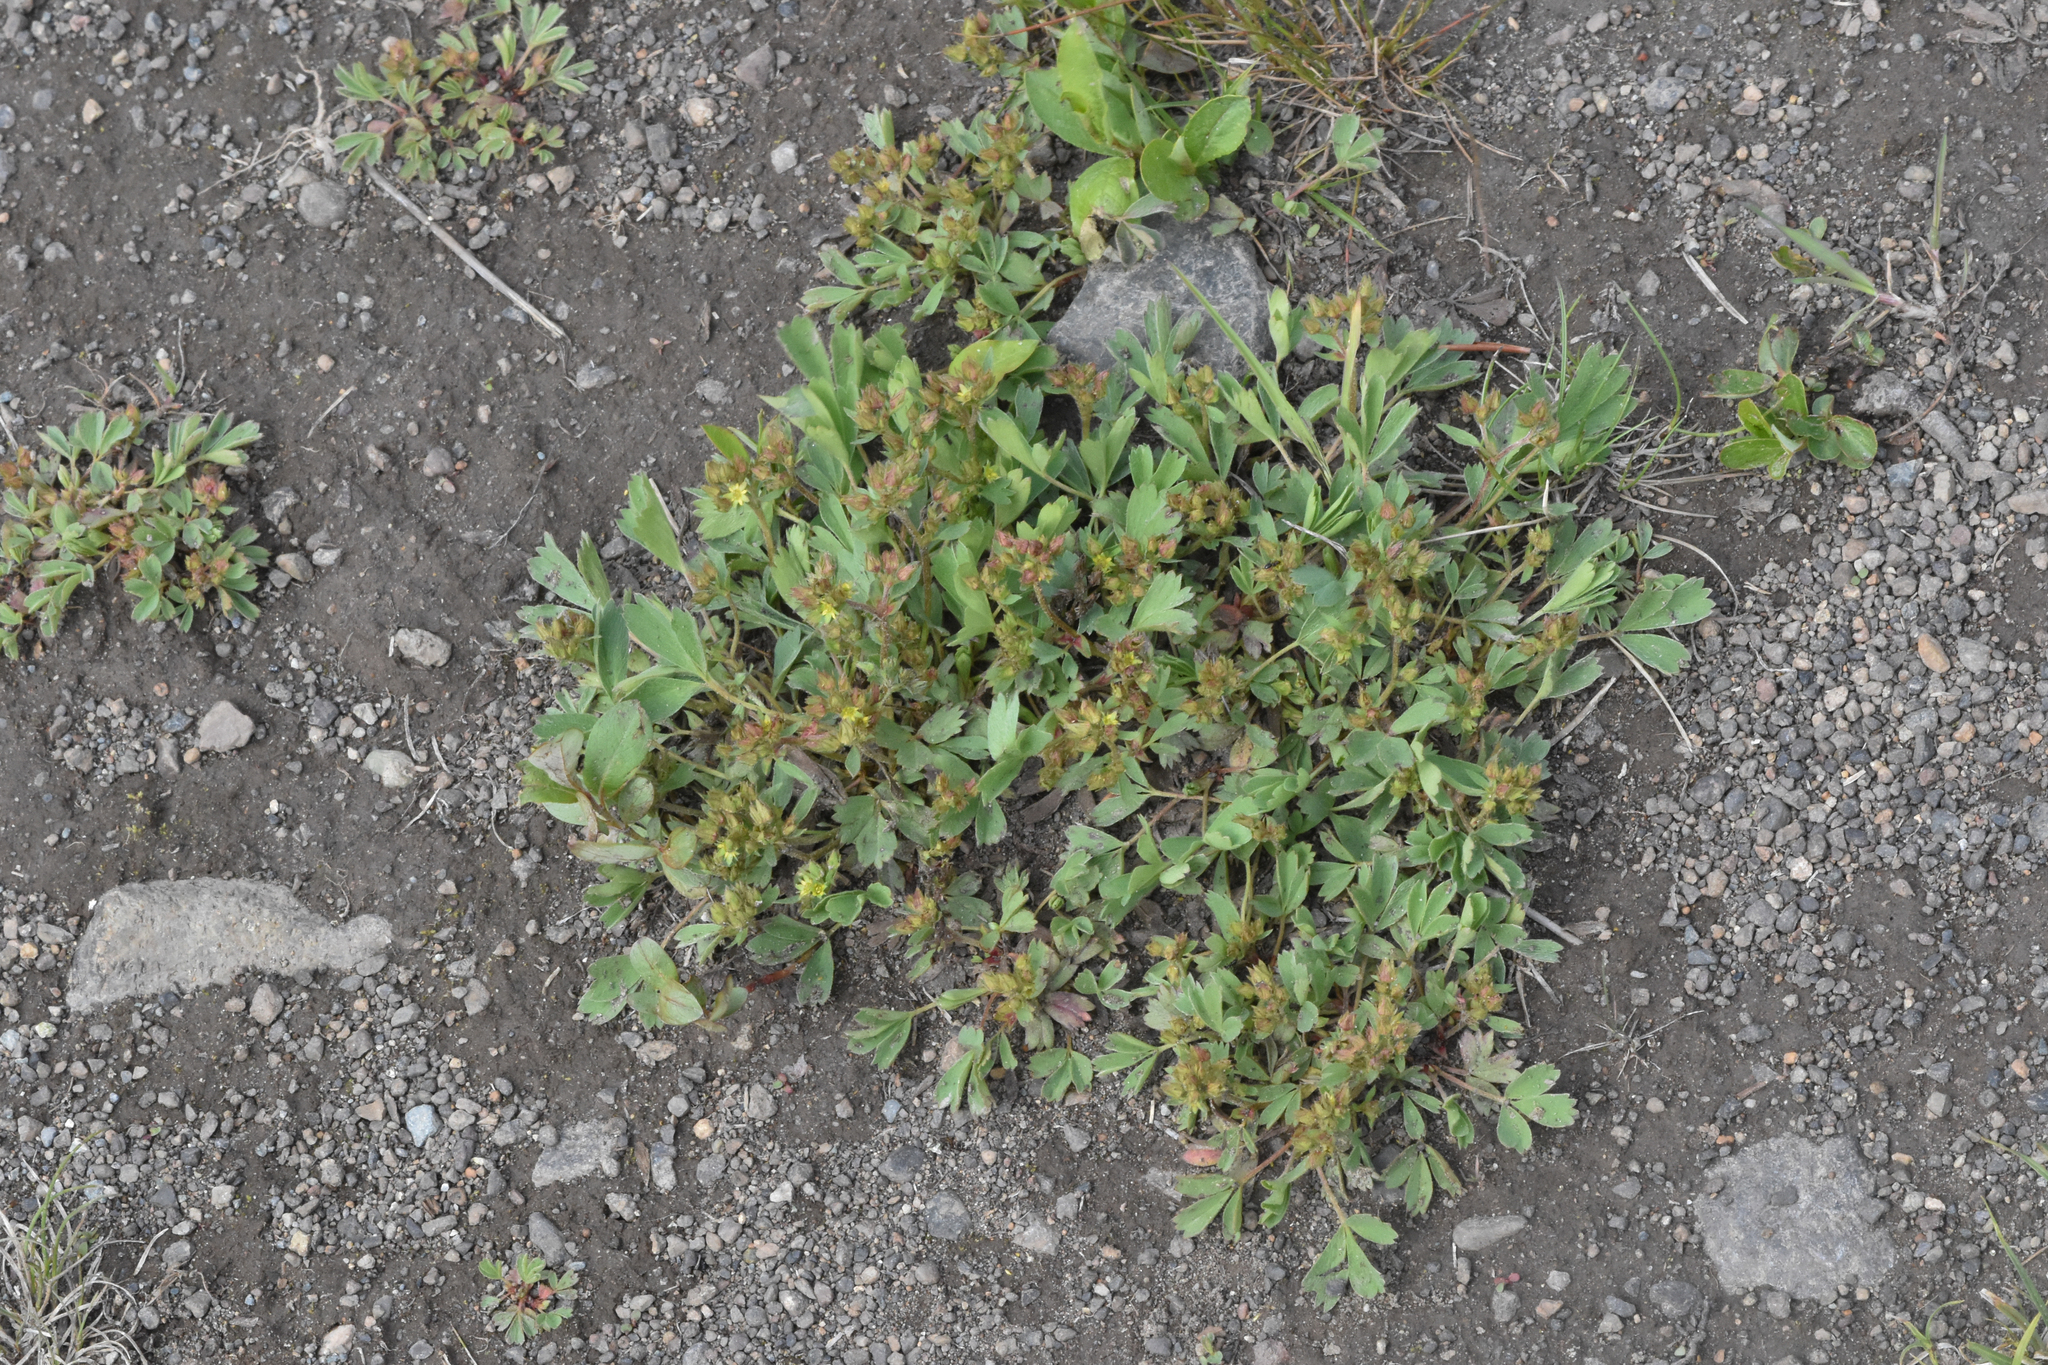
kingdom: Plantae
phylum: Tracheophyta
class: Magnoliopsida
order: Rosales
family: Rosaceae
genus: Sibbaldia
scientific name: Sibbaldia procumbens
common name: Creeping sibbaldia
